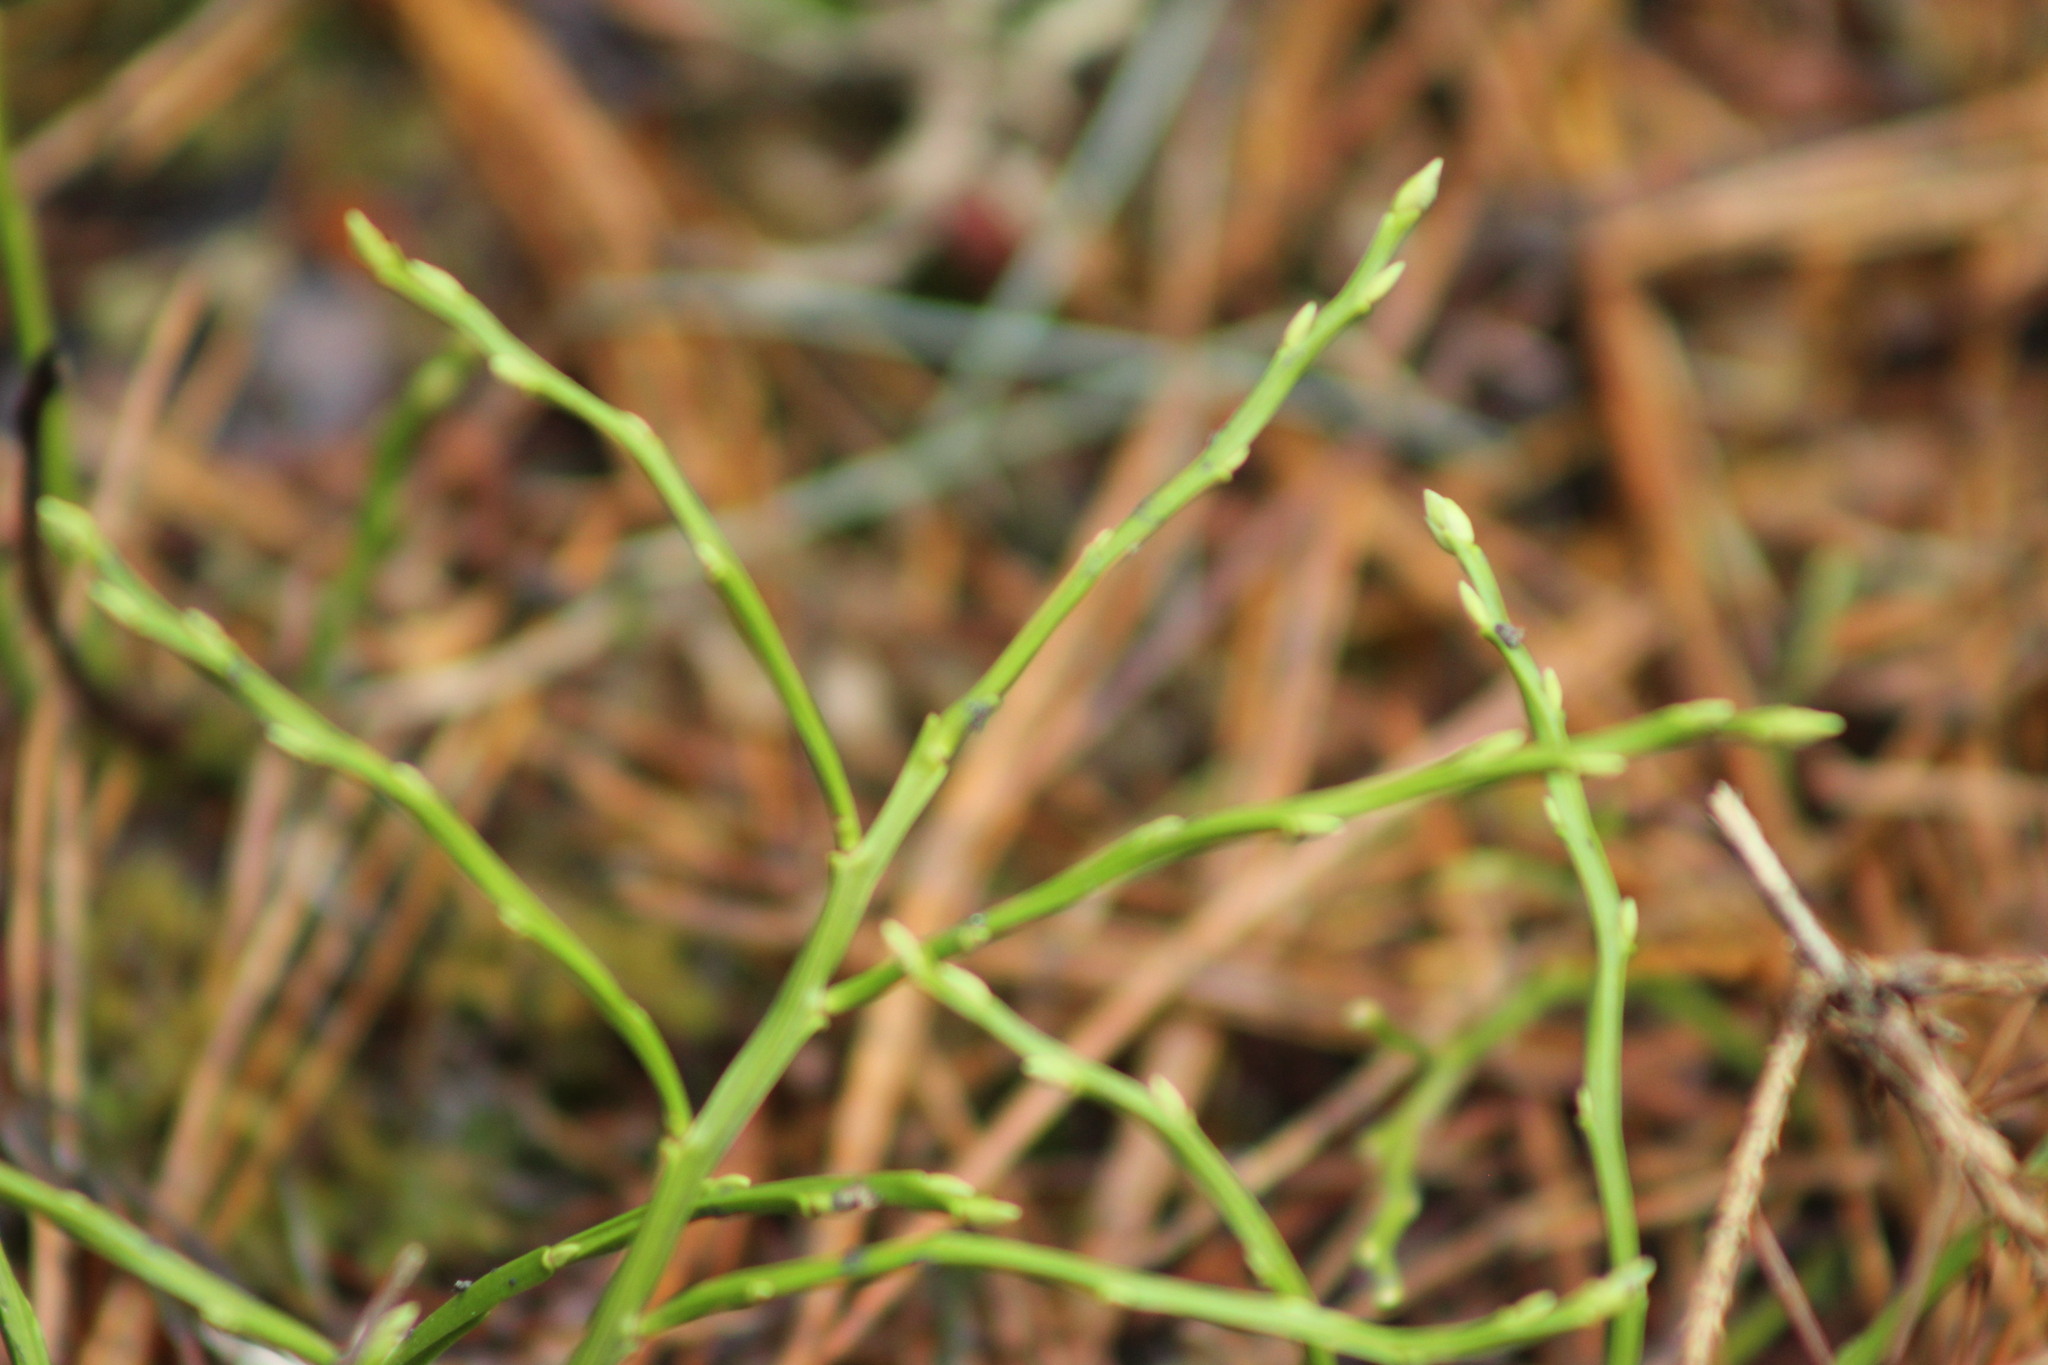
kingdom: Plantae
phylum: Tracheophyta
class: Magnoliopsida
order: Ericales
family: Ericaceae
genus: Vaccinium
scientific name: Vaccinium myrtillus
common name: Bilberry
